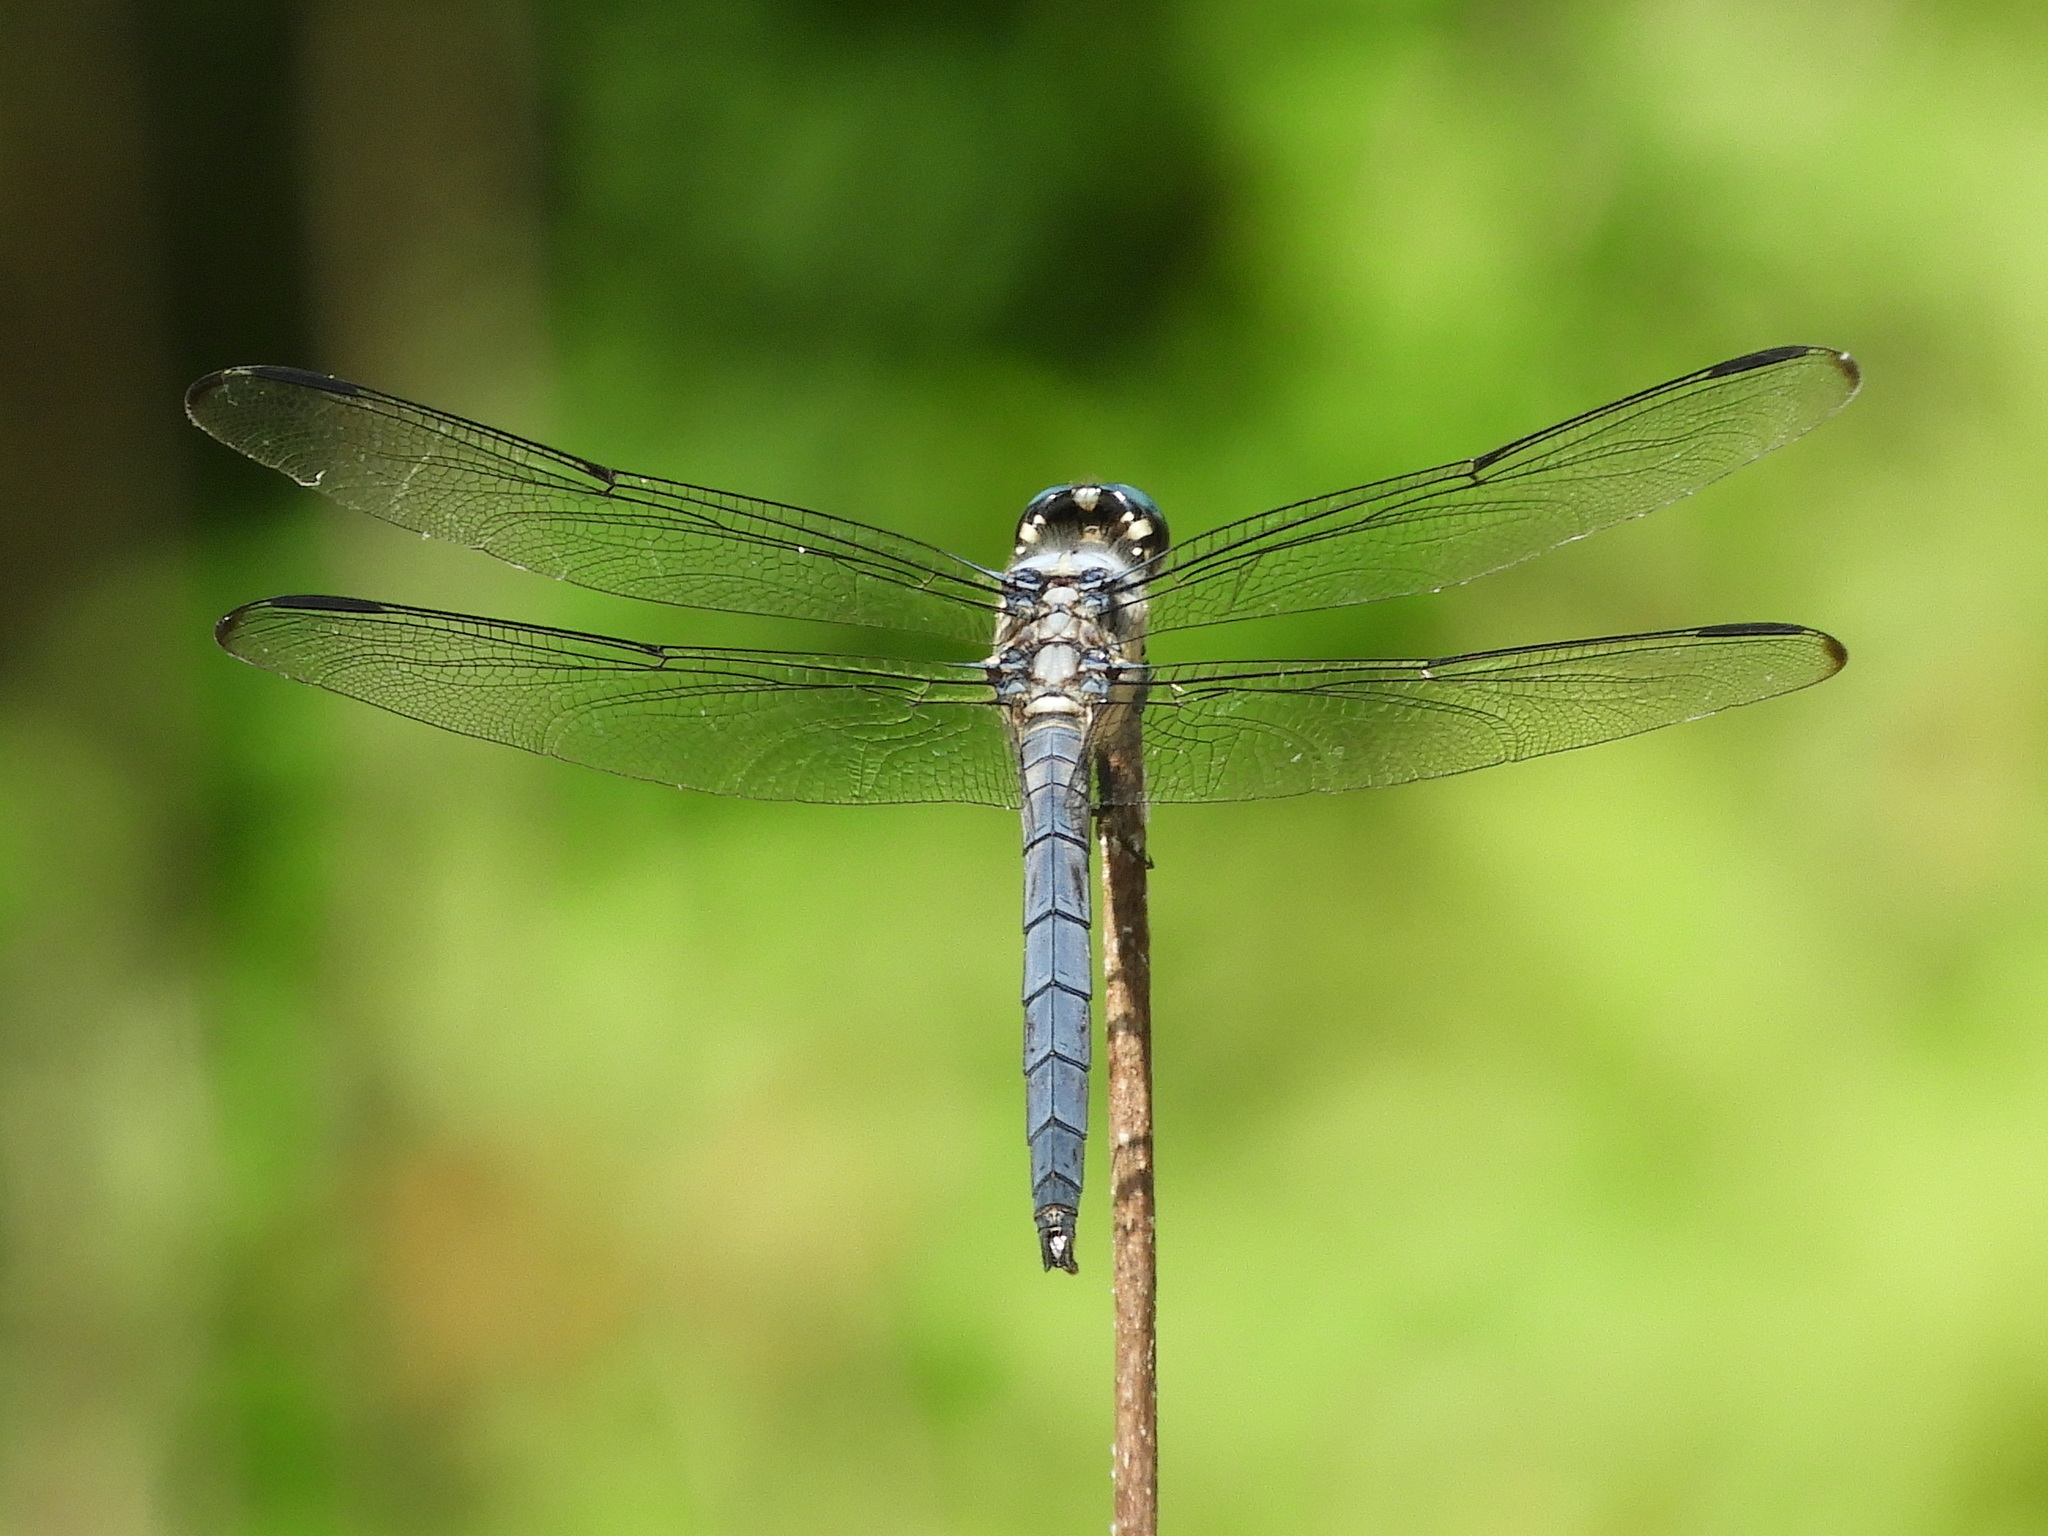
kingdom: Animalia
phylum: Arthropoda
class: Insecta
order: Odonata
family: Libellulidae
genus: Libellula
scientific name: Libellula vibrans
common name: Great blue skimmer
